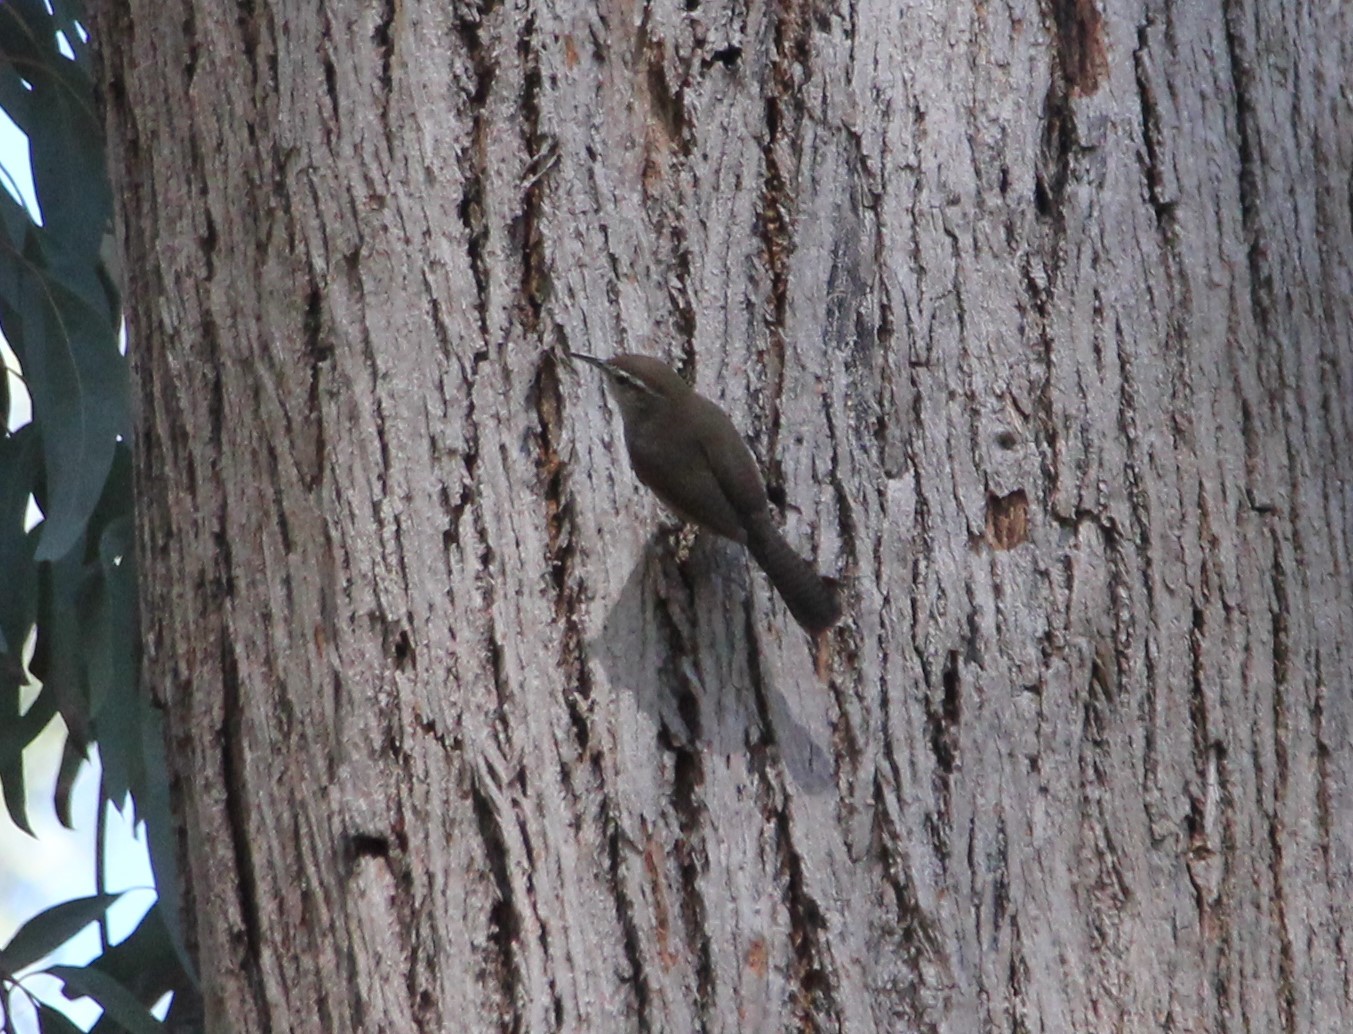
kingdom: Animalia
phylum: Chordata
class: Aves
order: Passeriformes
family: Troglodytidae
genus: Thryomanes
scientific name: Thryomanes bewickii
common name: Bewick's wren
